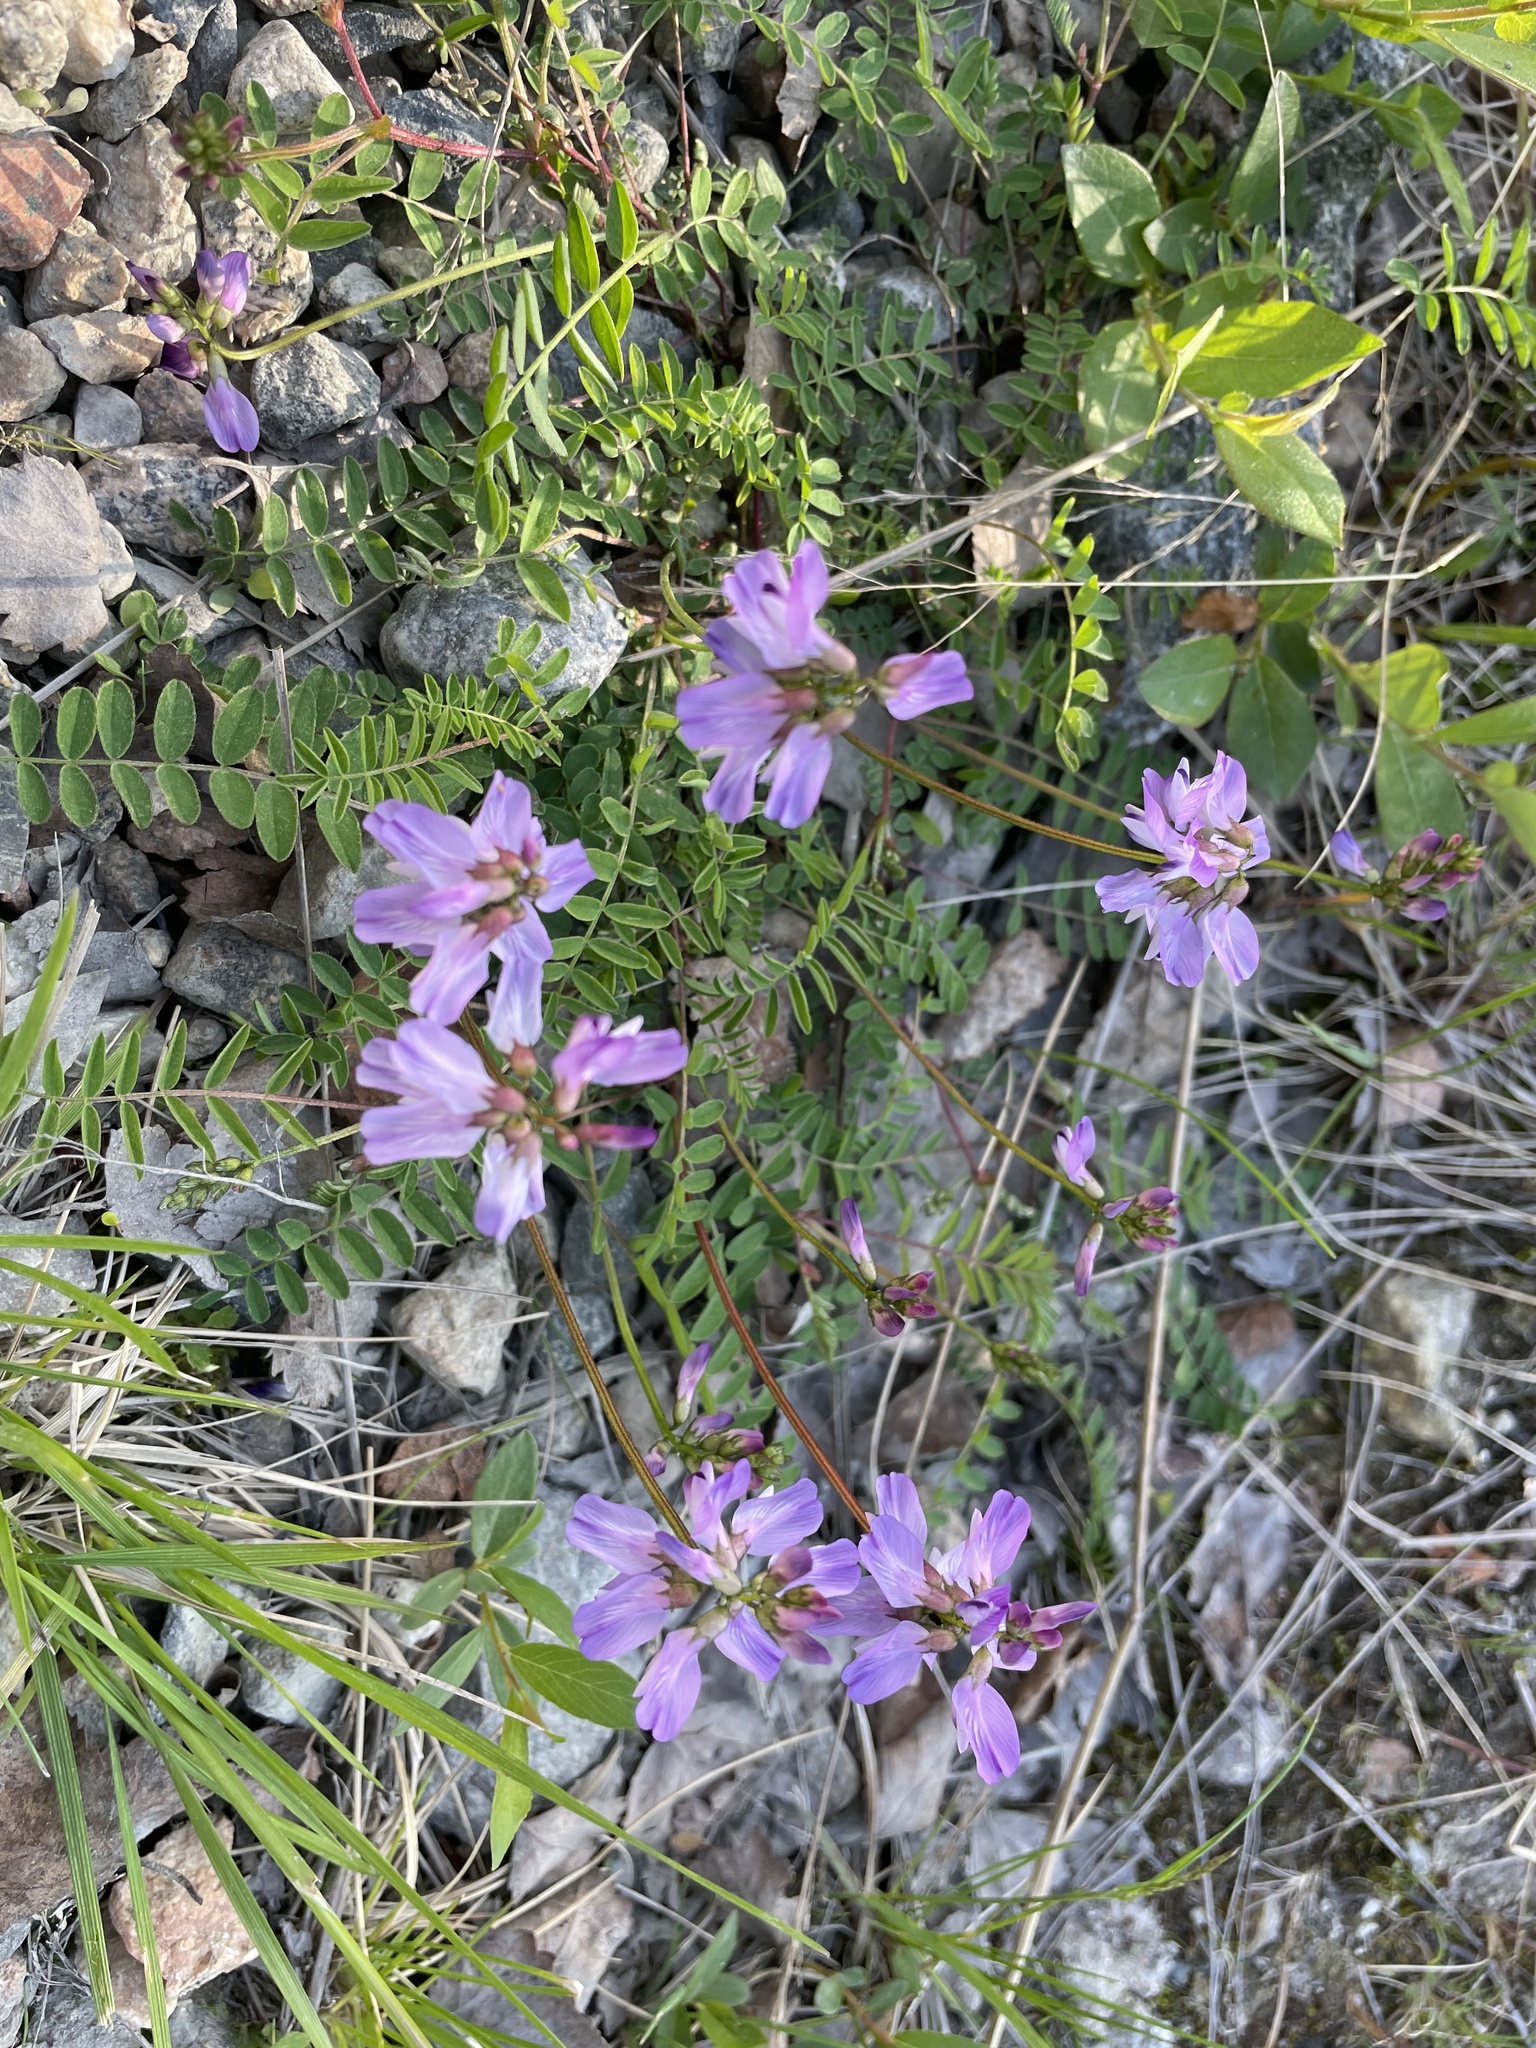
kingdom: Plantae
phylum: Tracheophyta
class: Magnoliopsida
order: Fabales
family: Fabaceae
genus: Astragalus
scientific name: Astragalus alpinus
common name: Alpine milk-vetch
